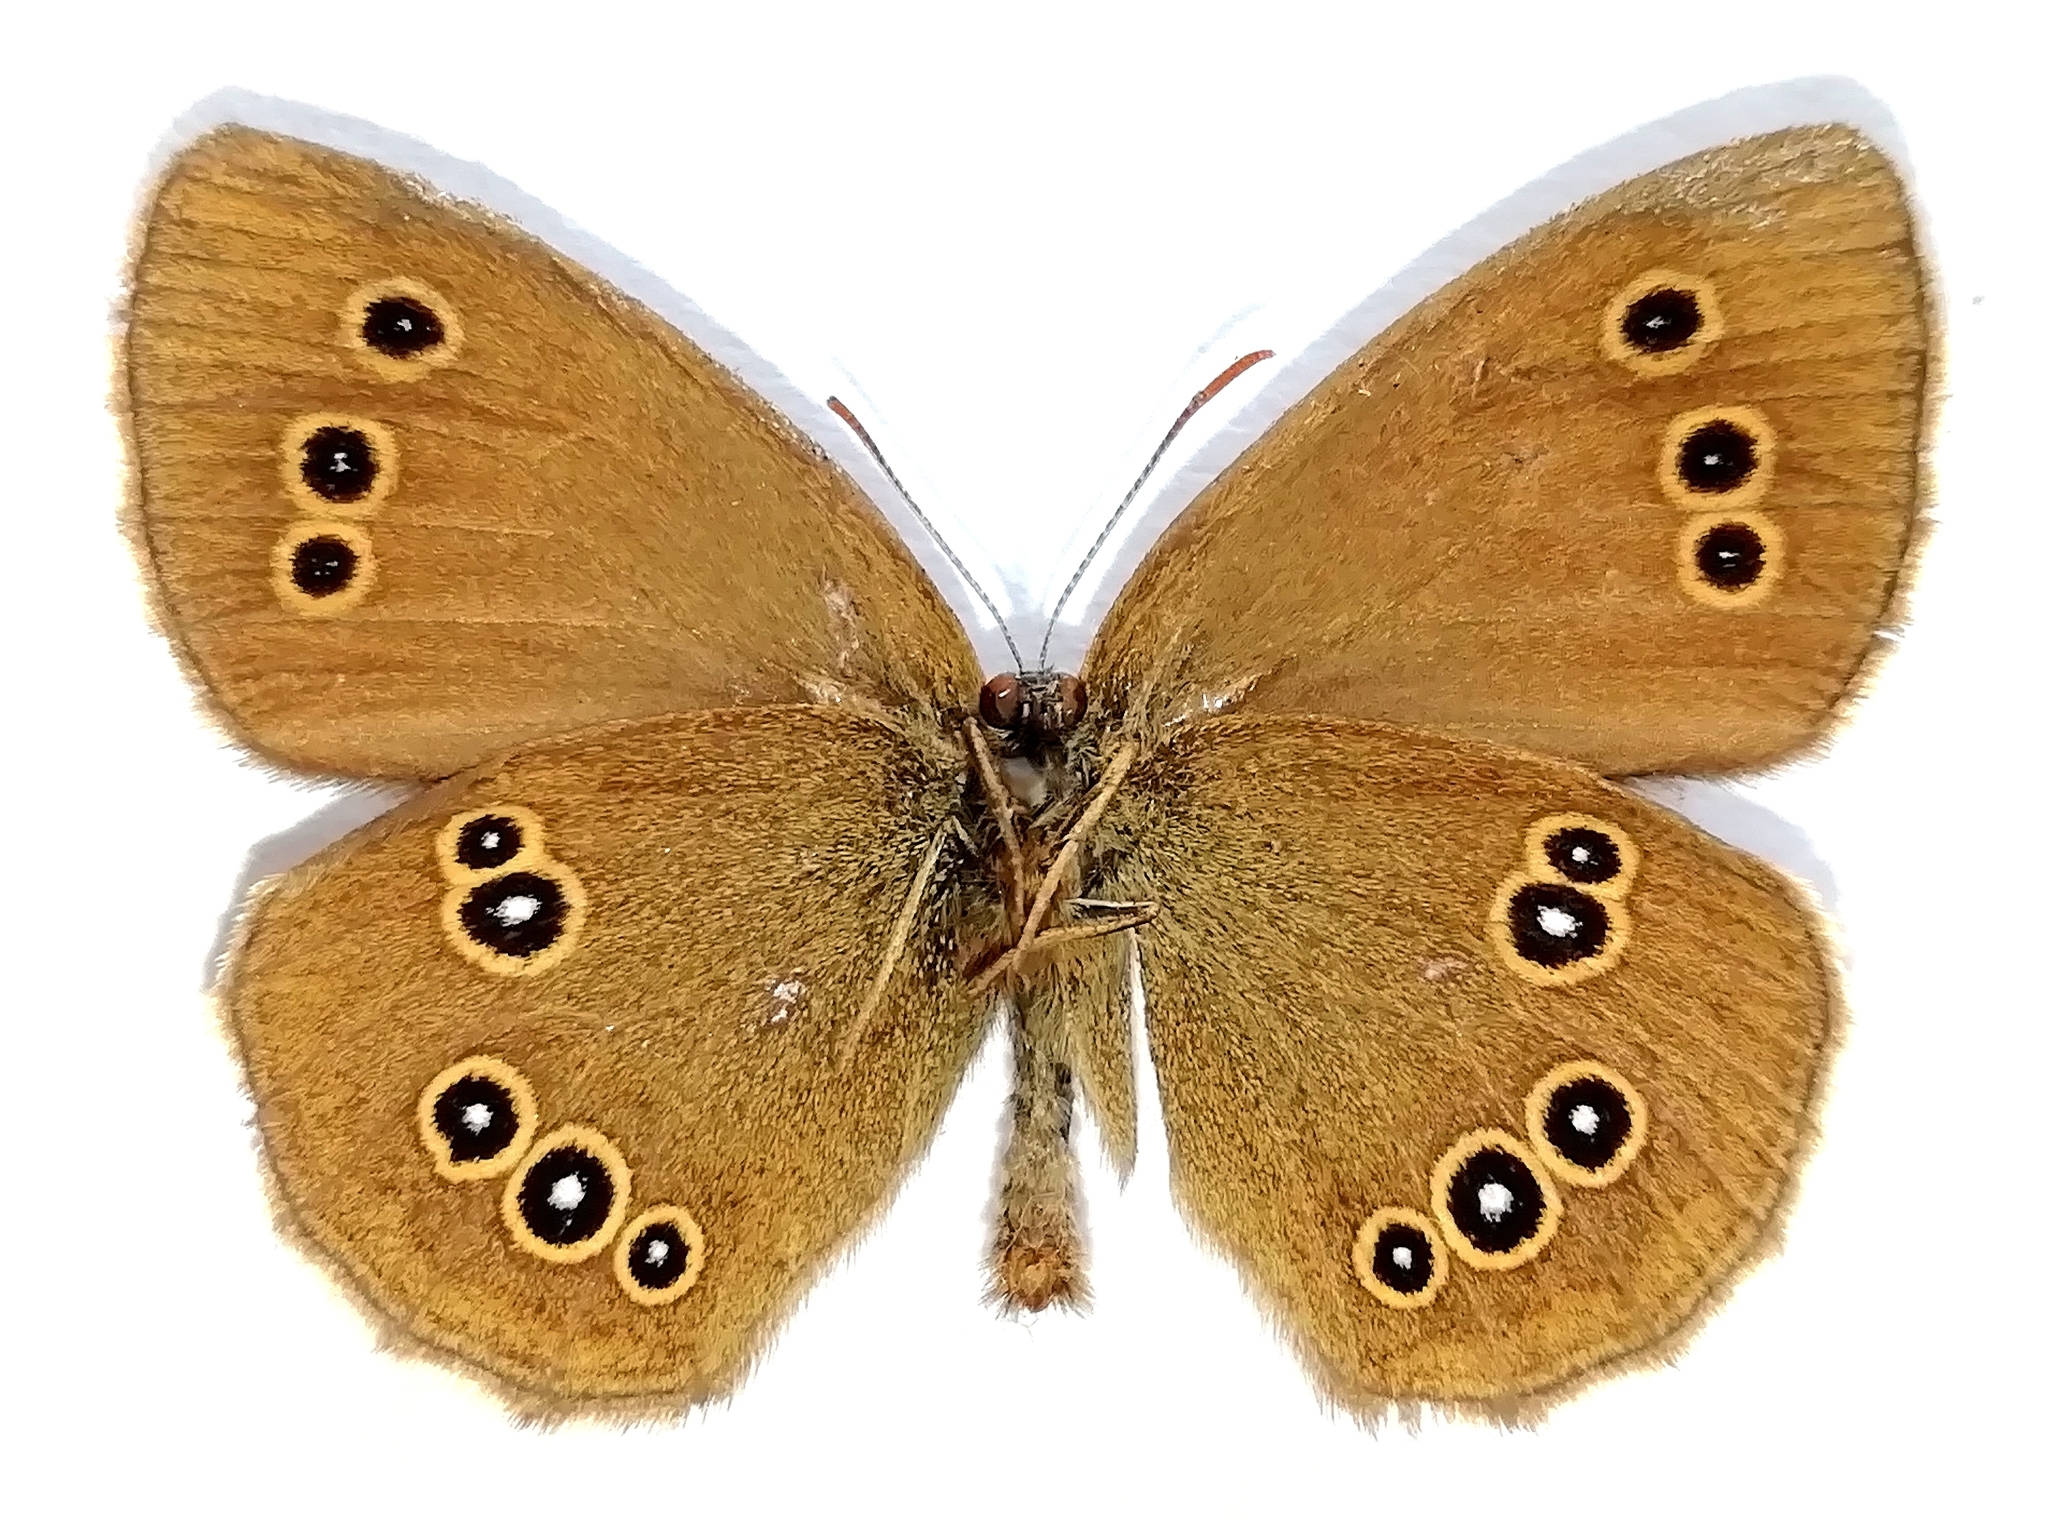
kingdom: Animalia
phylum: Arthropoda
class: Insecta
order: Lepidoptera
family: Nymphalidae
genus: Aphantopus
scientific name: Aphantopus hyperantus
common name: Ringlet
